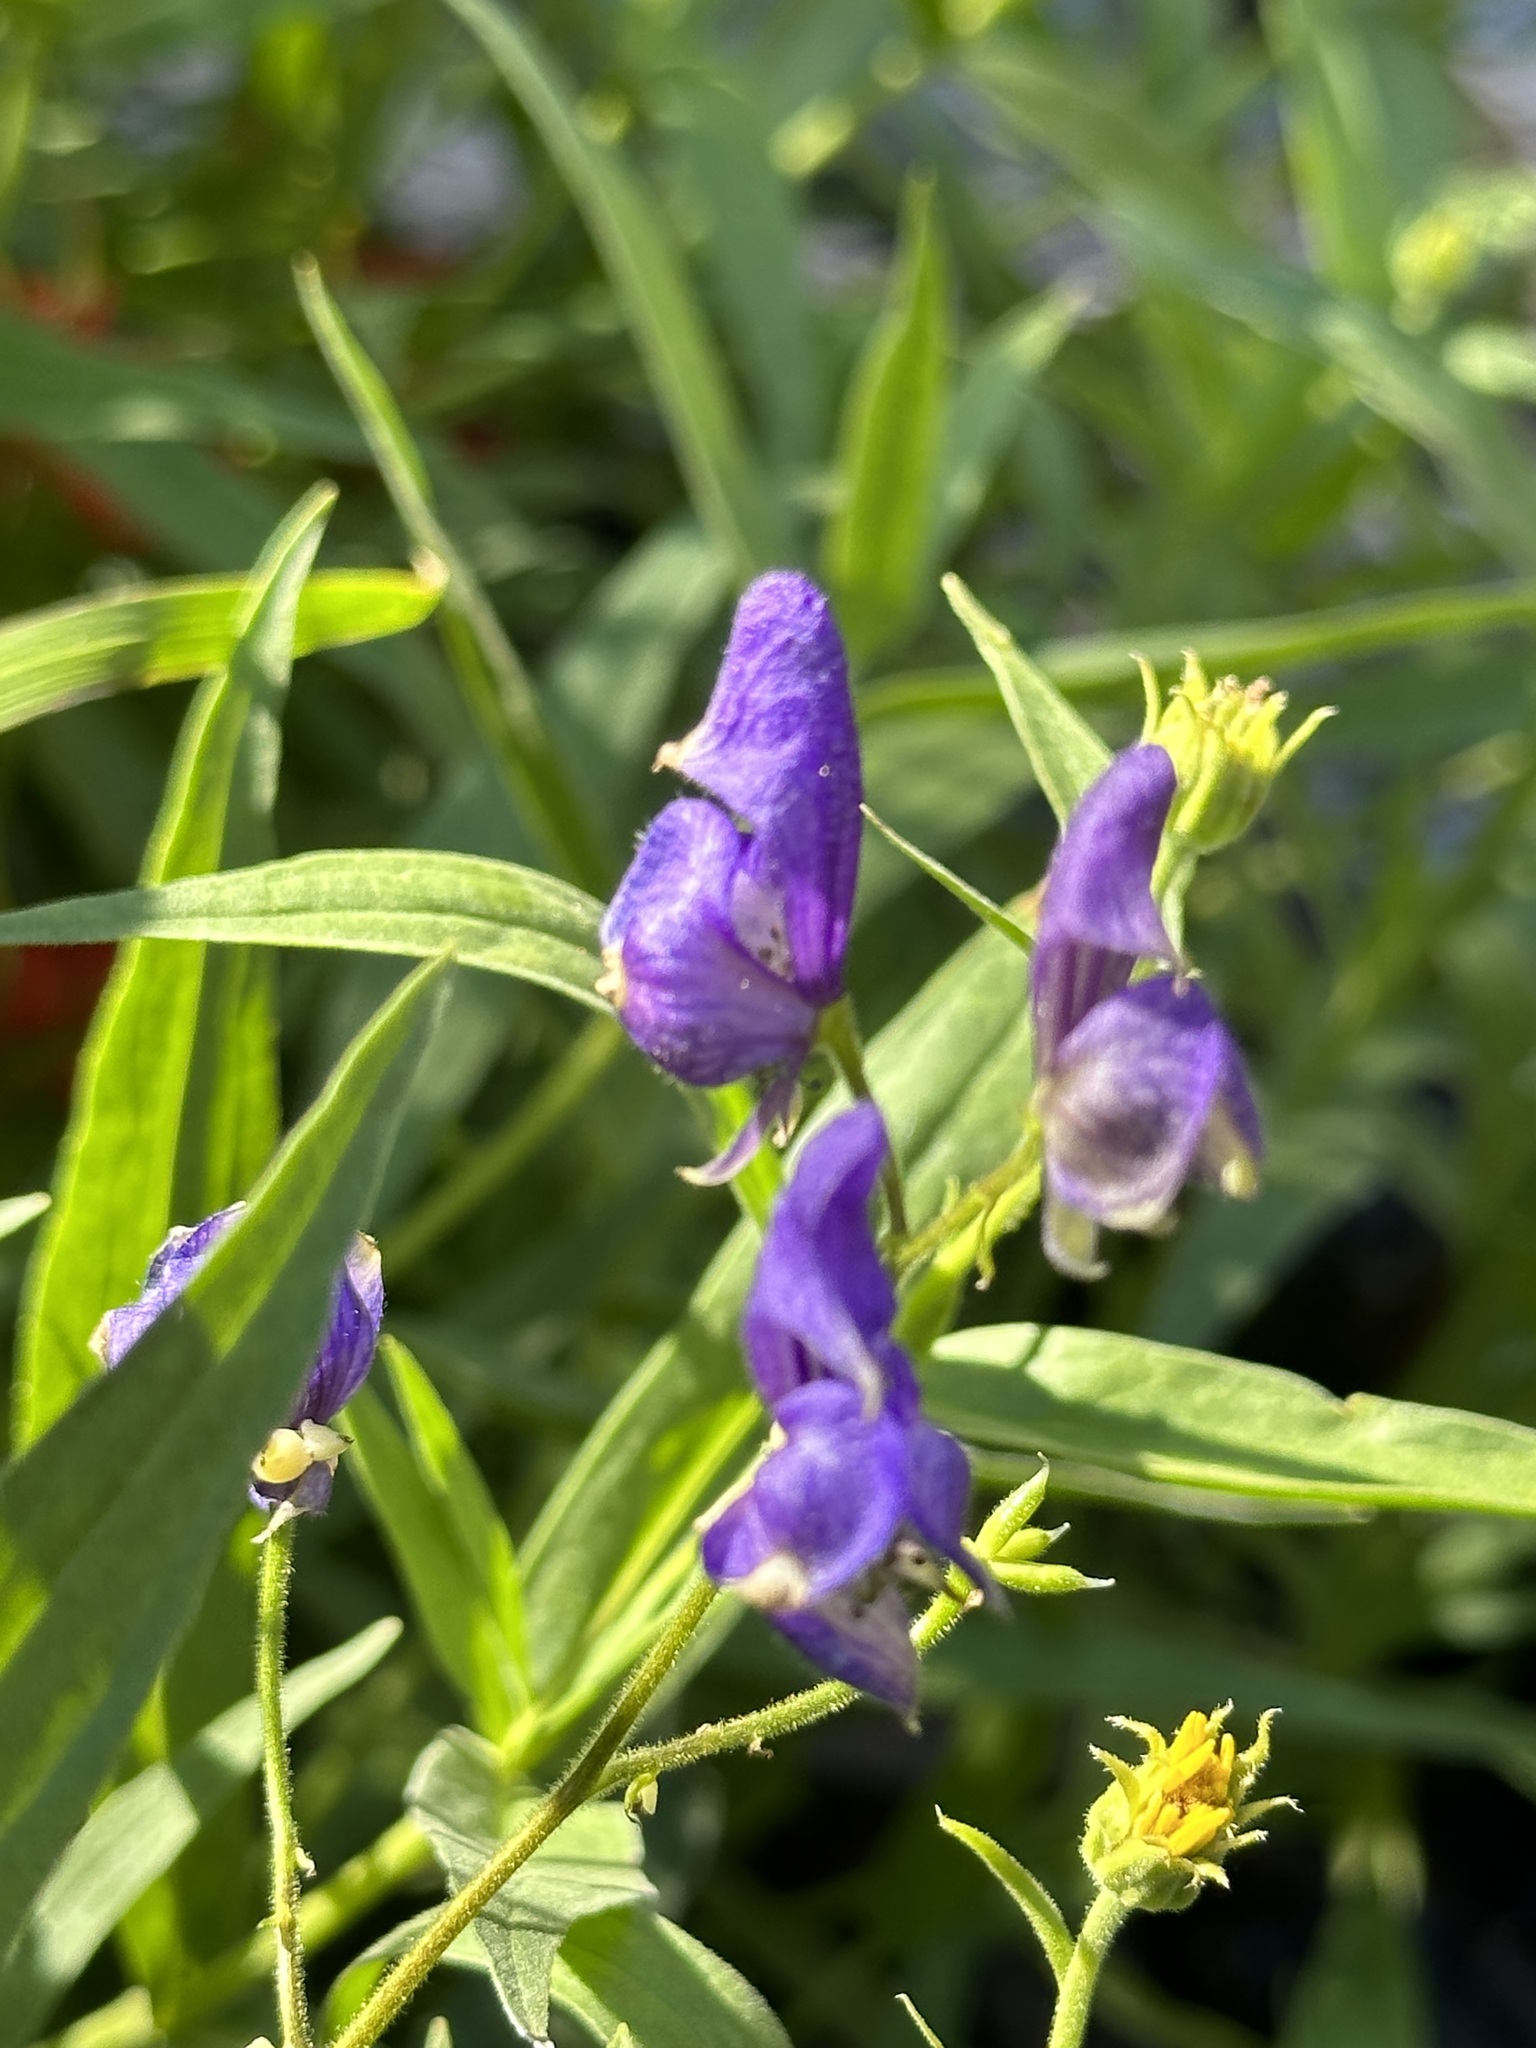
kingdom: Plantae
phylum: Tracheophyta
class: Magnoliopsida
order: Ranunculales
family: Ranunculaceae
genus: Aconitum
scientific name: Aconitum columbianum
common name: Columbia aconite
